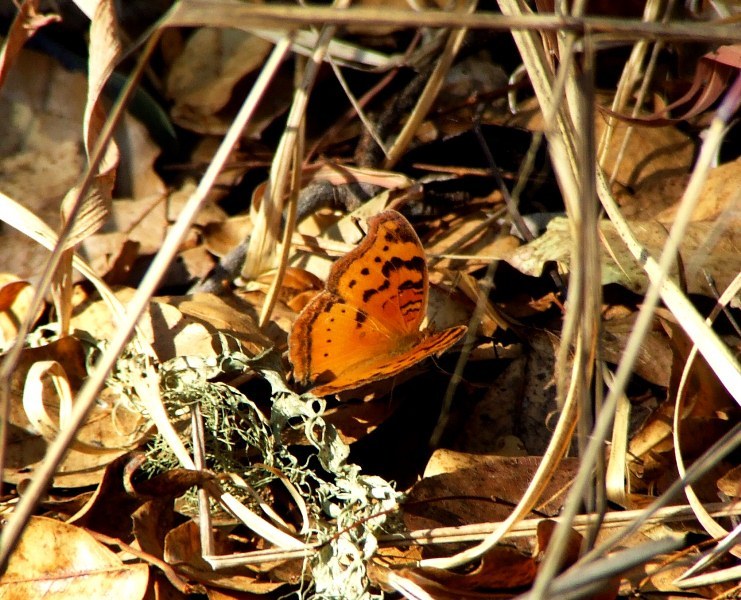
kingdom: Animalia
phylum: Arthropoda
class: Insecta
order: Lepidoptera
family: Nymphalidae
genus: Junonia
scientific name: Junonia antilope
